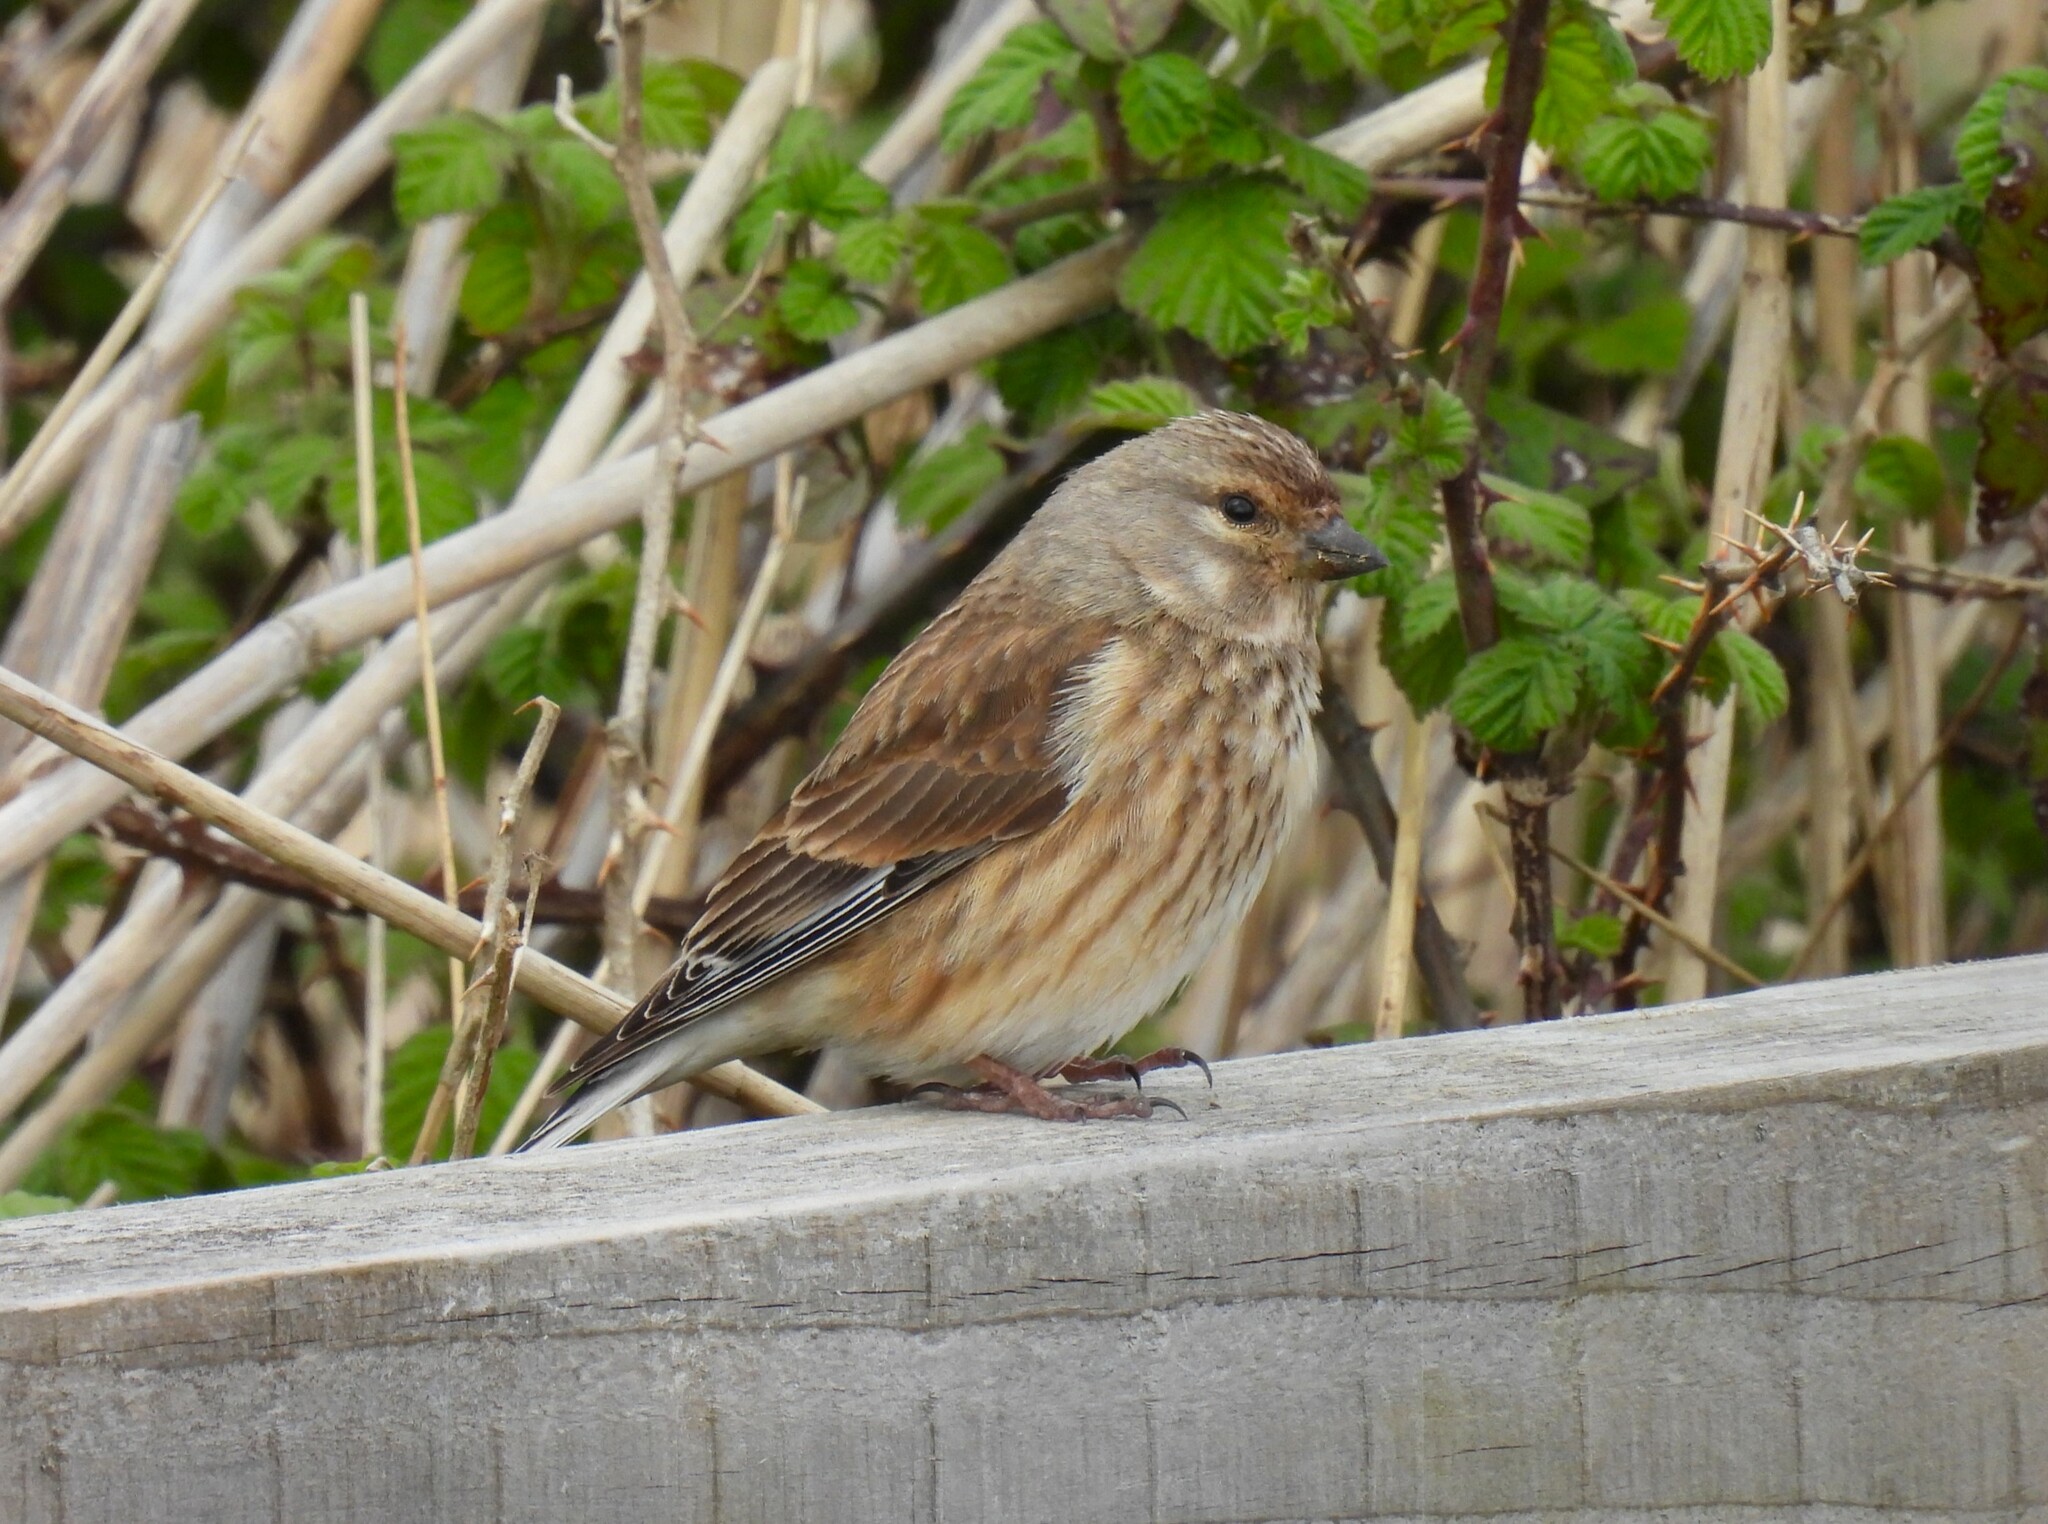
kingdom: Animalia
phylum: Chordata
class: Aves
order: Passeriformes
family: Fringillidae
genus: Linaria
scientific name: Linaria cannabina
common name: Common linnet
